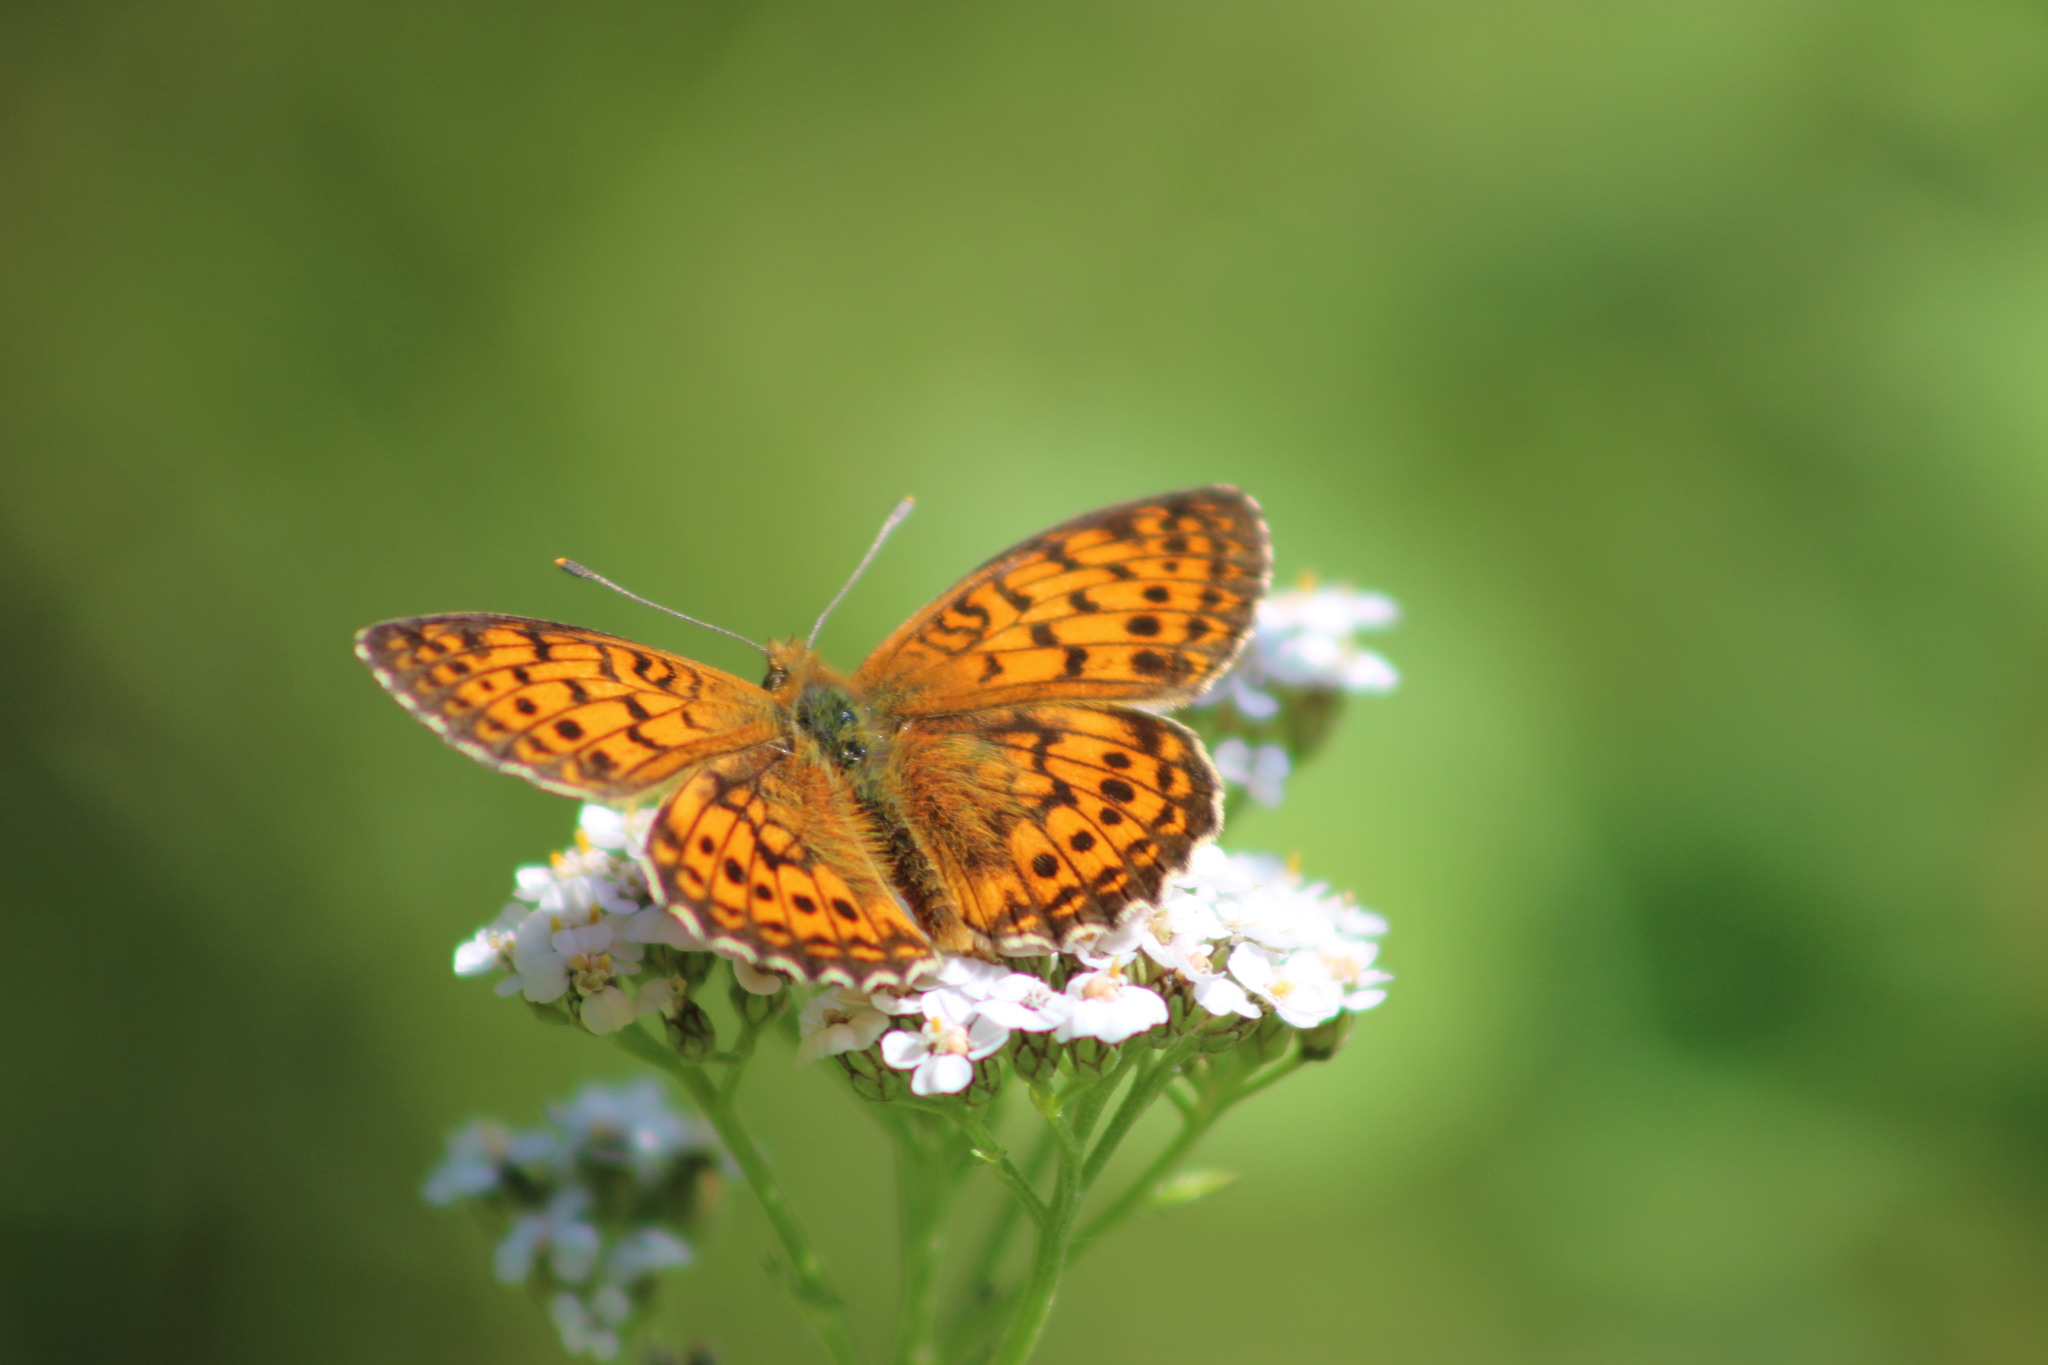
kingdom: Animalia
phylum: Arthropoda
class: Insecta
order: Lepidoptera
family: Nymphalidae
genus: Brenthis
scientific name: Brenthis ino
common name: Lesser marbled fritillary
